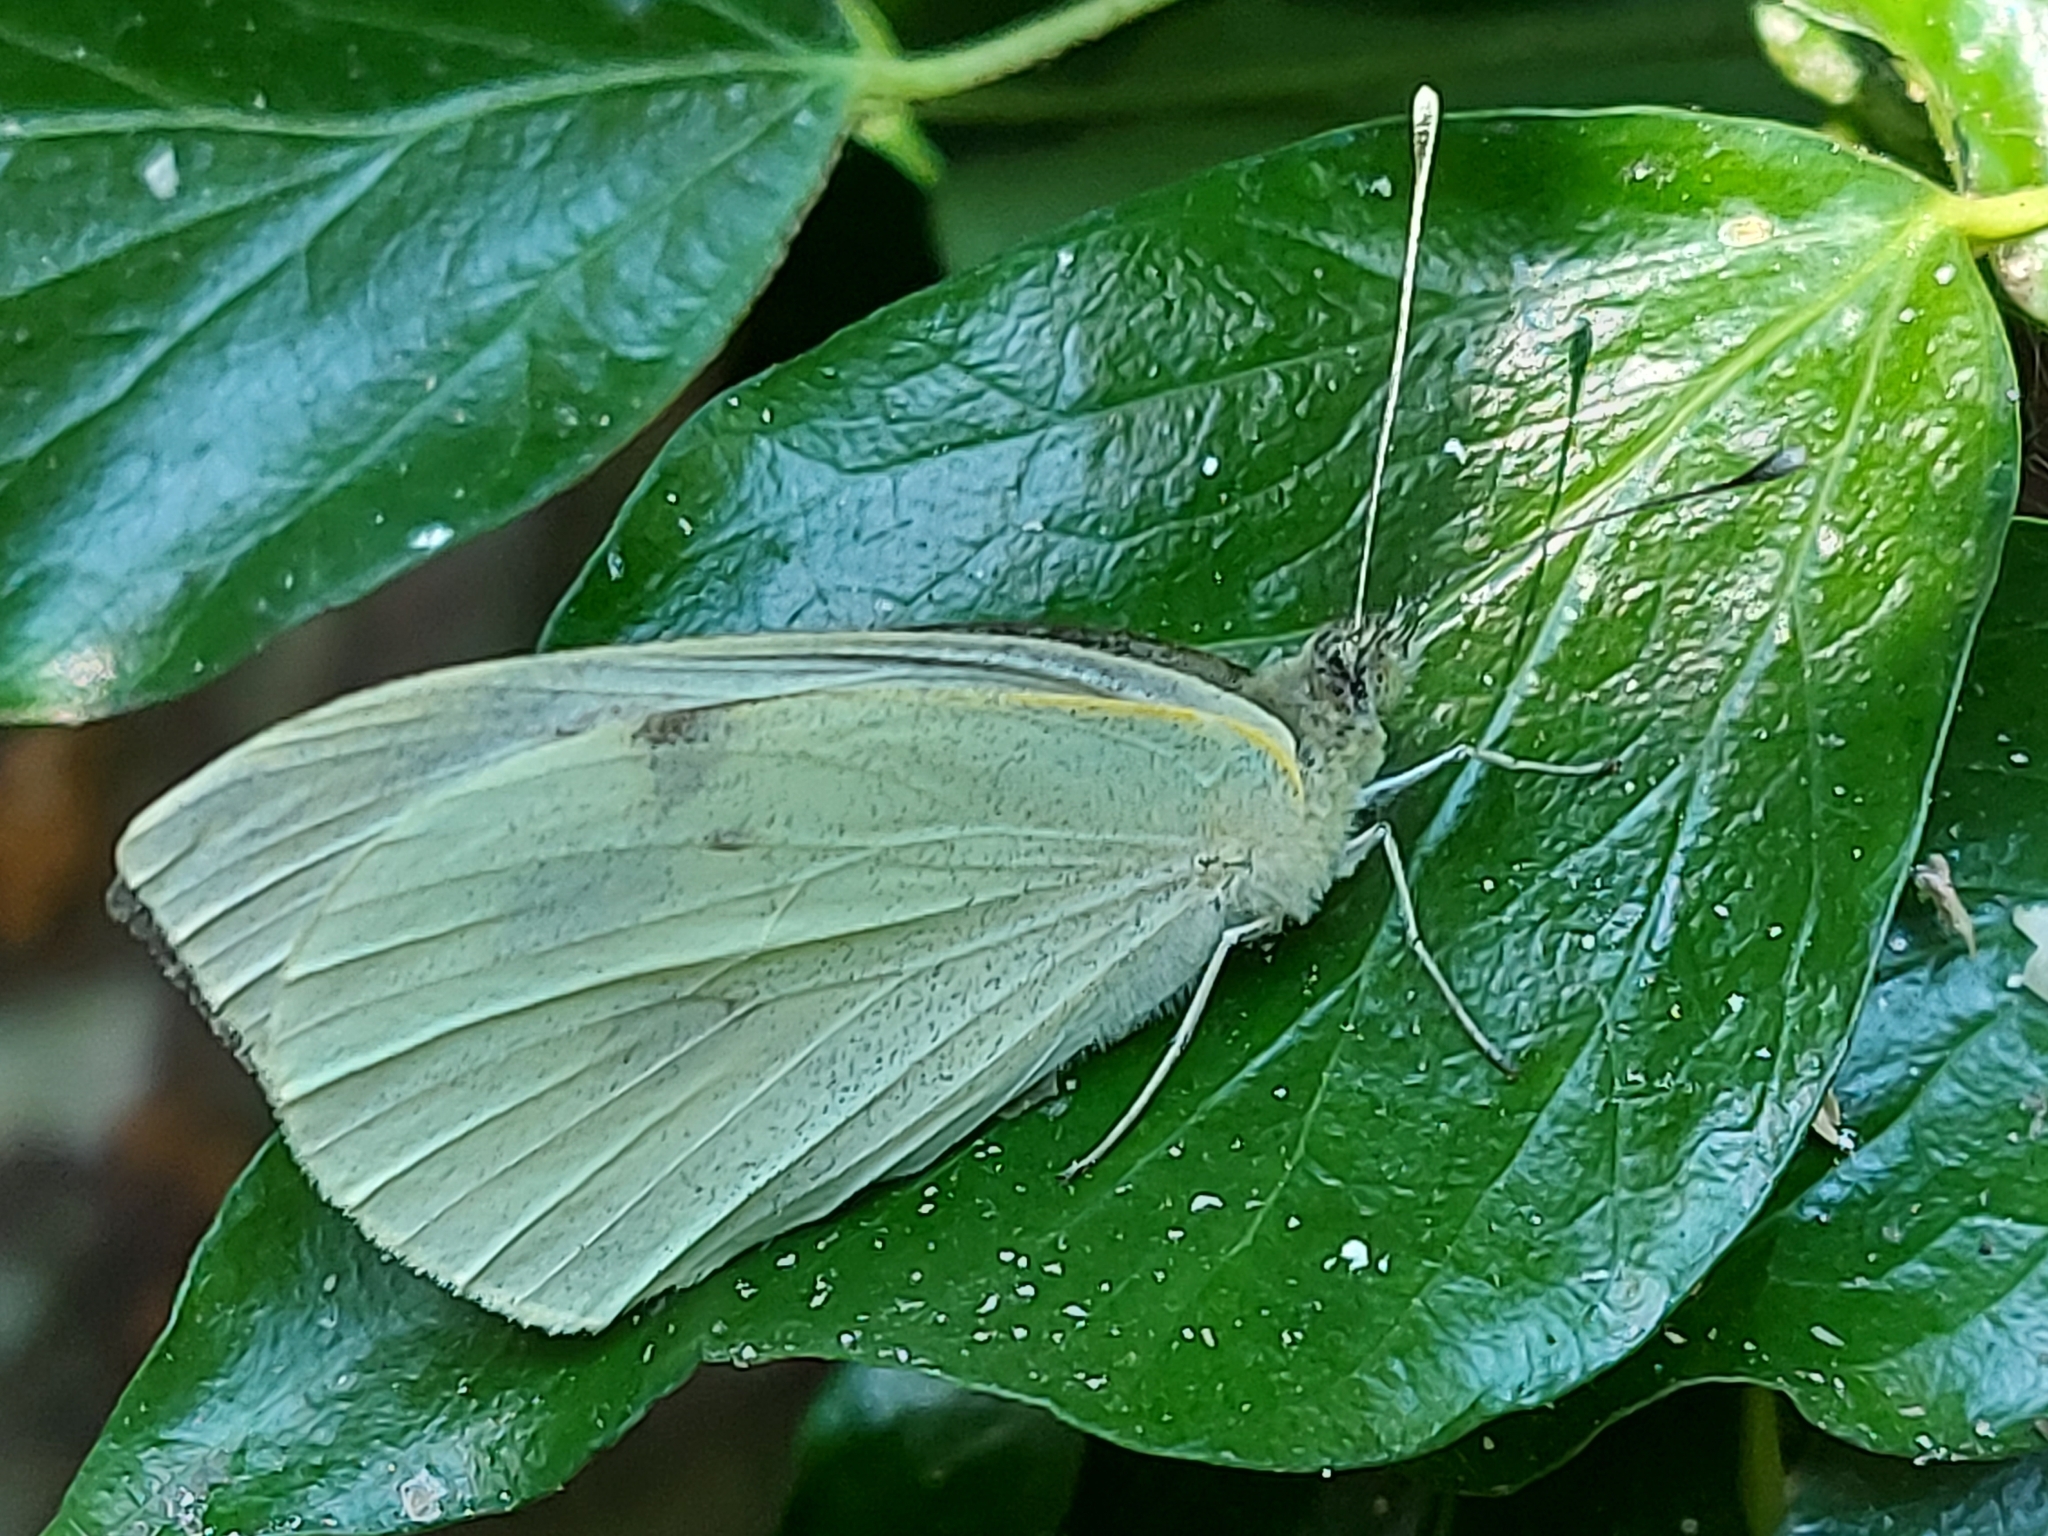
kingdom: Animalia
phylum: Arthropoda
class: Insecta
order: Lepidoptera
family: Pieridae
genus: Pieris
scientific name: Pieris rapae
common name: Small white
